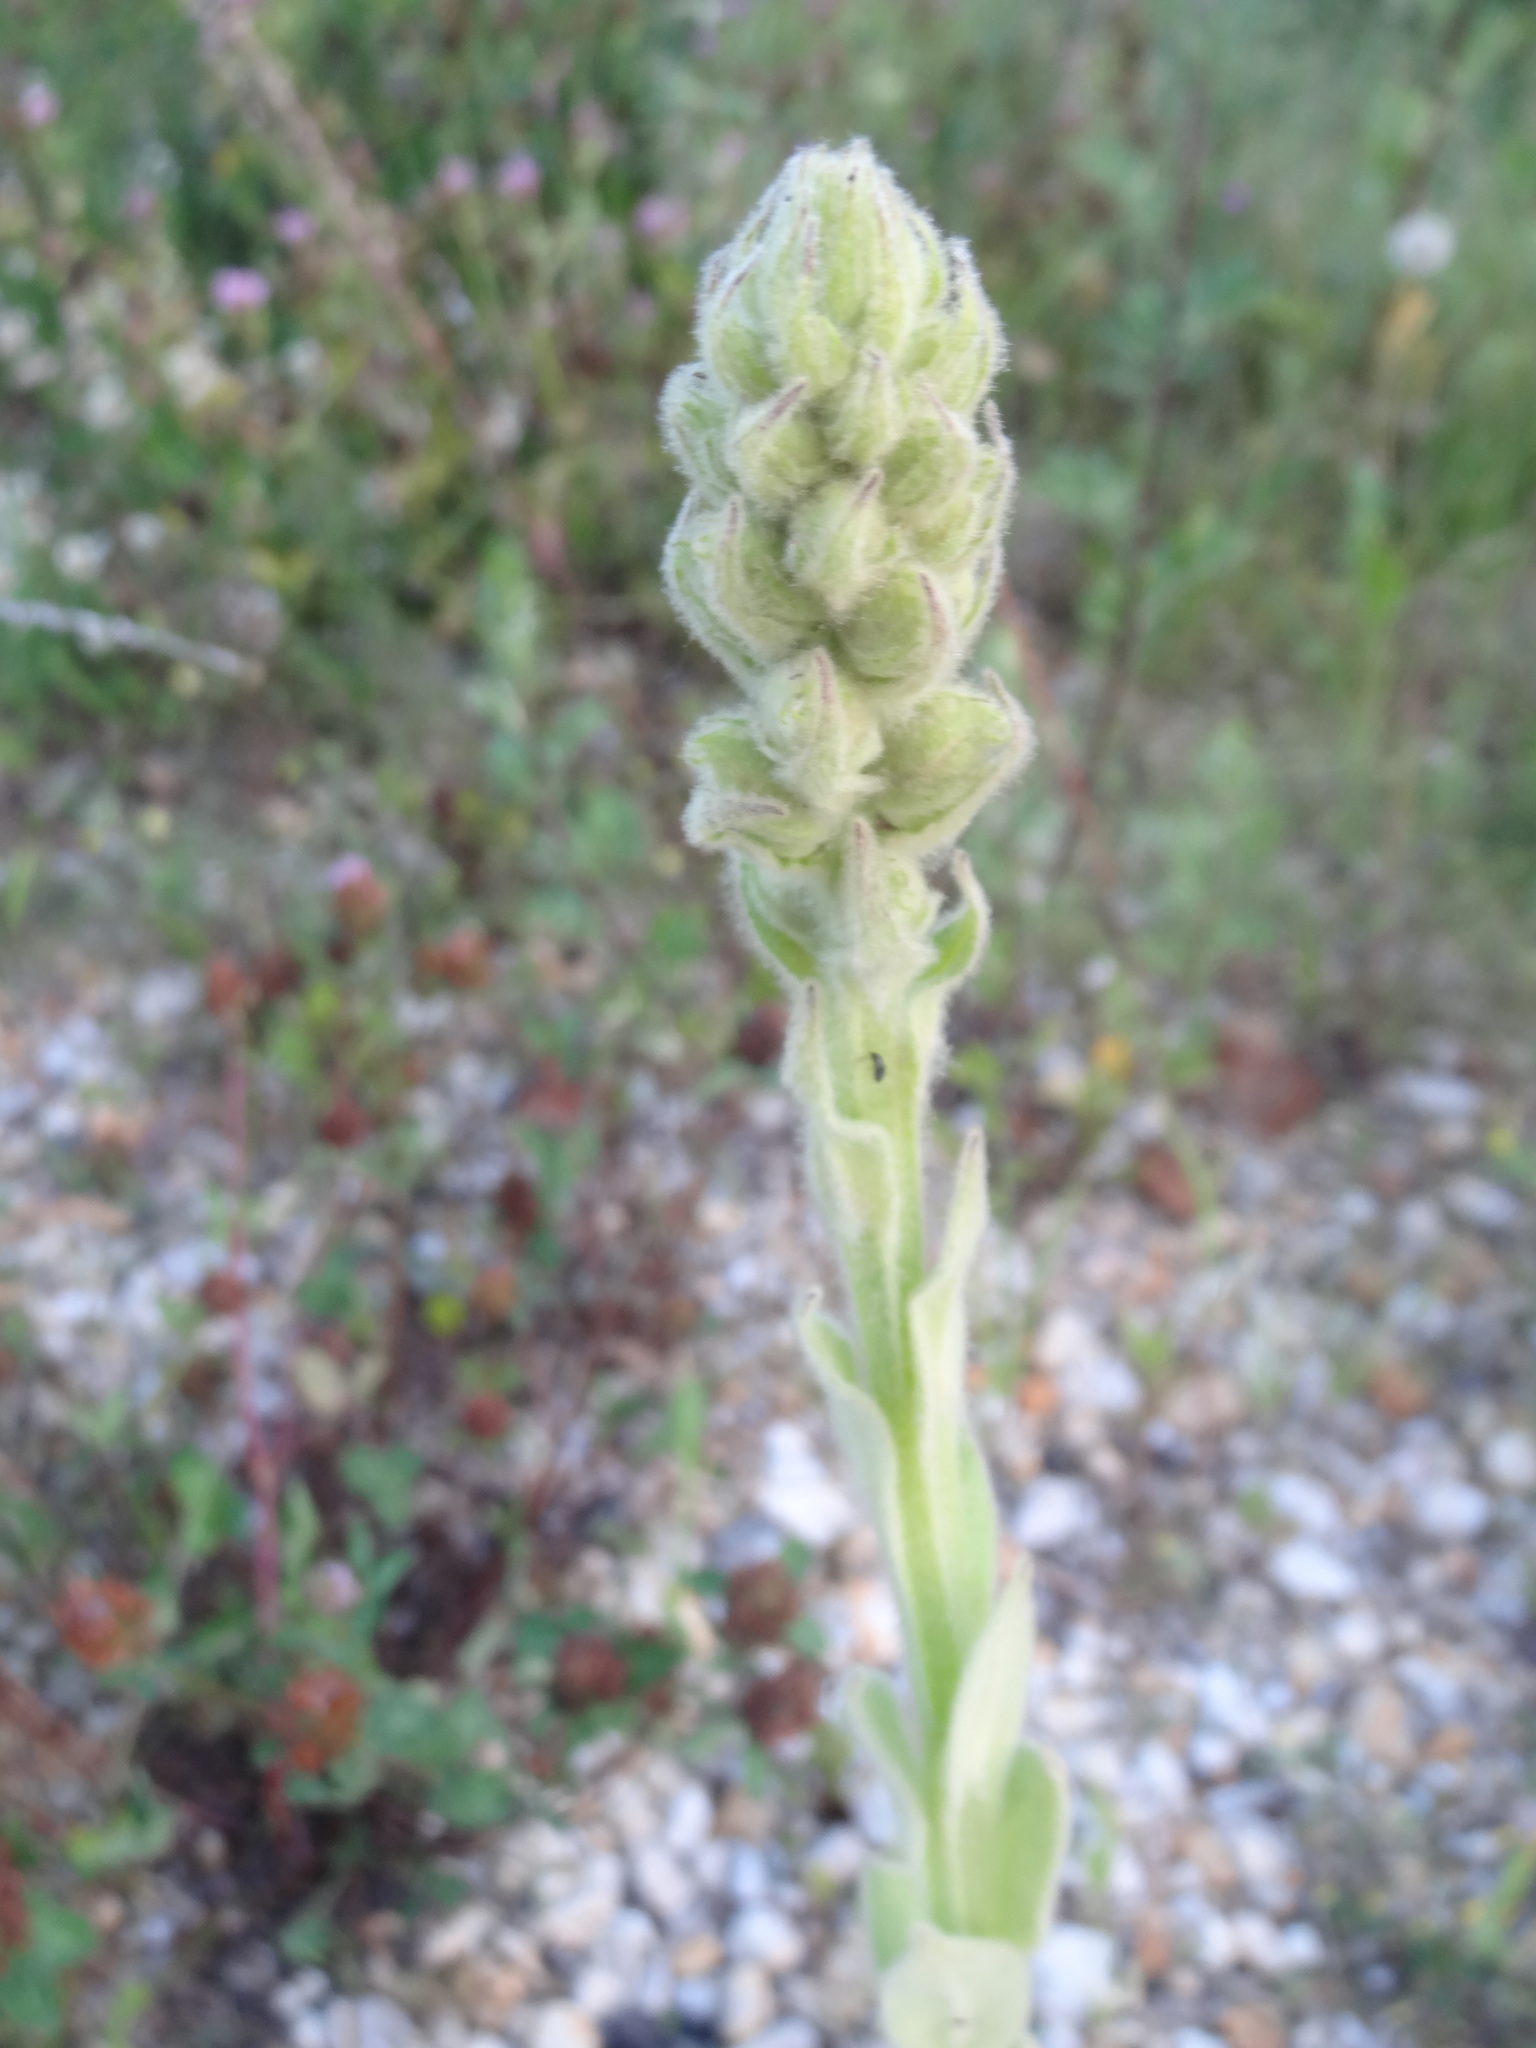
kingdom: Plantae
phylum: Tracheophyta
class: Magnoliopsida
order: Lamiales
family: Scrophulariaceae
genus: Verbascum
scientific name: Verbascum thapsus
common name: Common mullein
